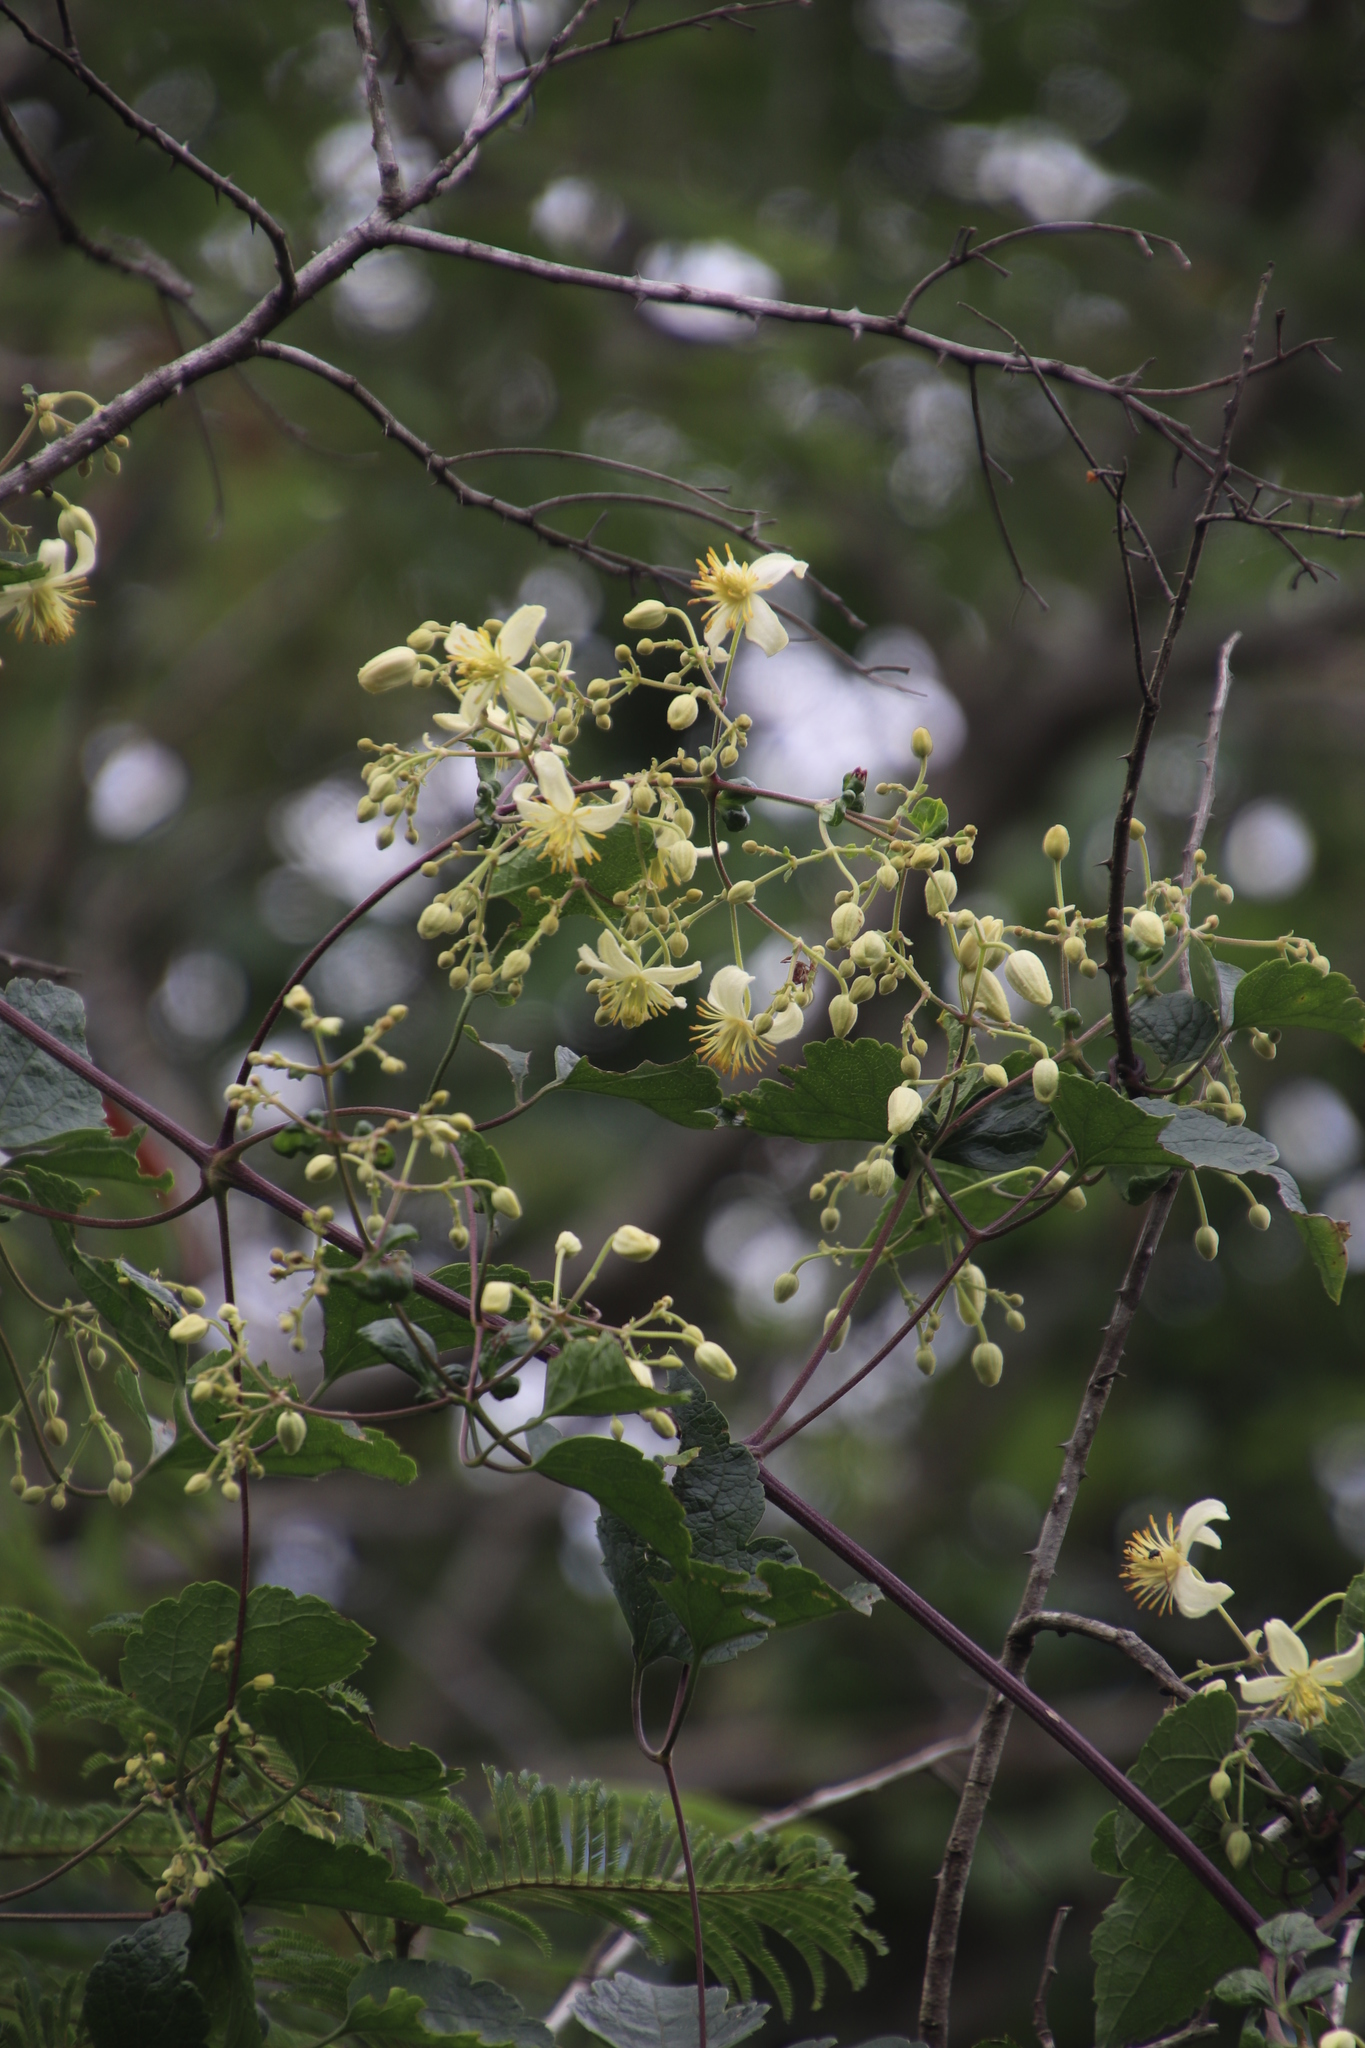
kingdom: Plantae
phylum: Tracheophyta
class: Magnoliopsida
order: Ranunculales
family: Ranunculaceae
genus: Clematis
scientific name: Clematis brachiata
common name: Traveler's-joy
